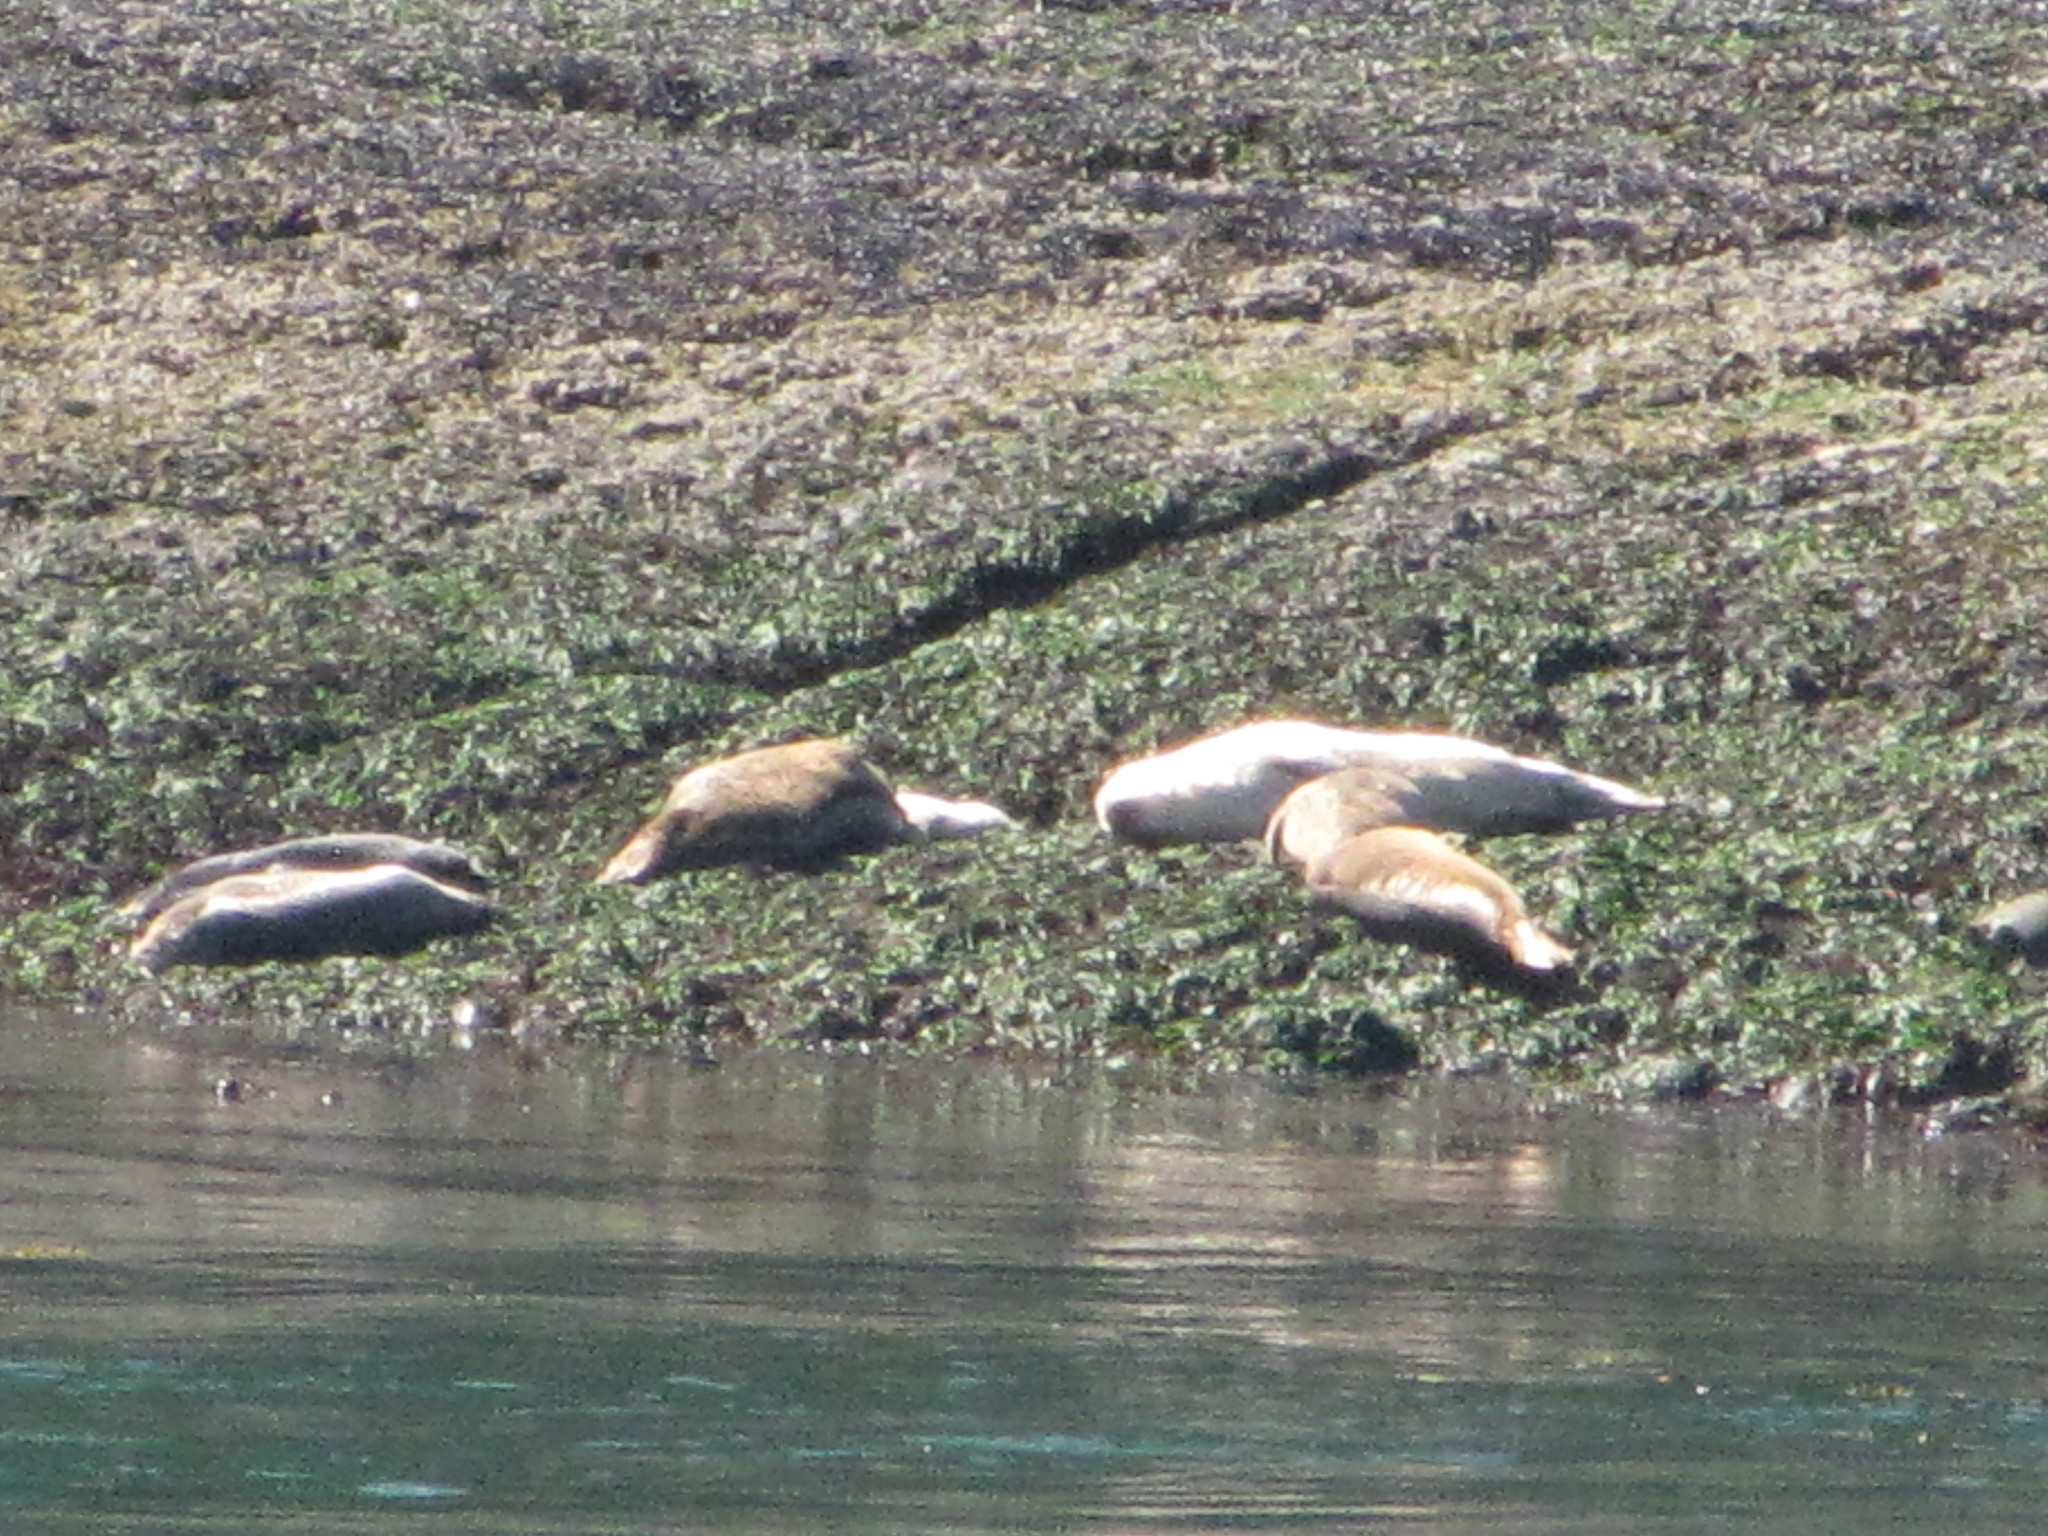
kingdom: Animalia
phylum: Chordata
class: Mammalia
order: Carnivora
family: Phocidae
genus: Phoca
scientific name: Phoca vitulina
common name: Harbor seal
